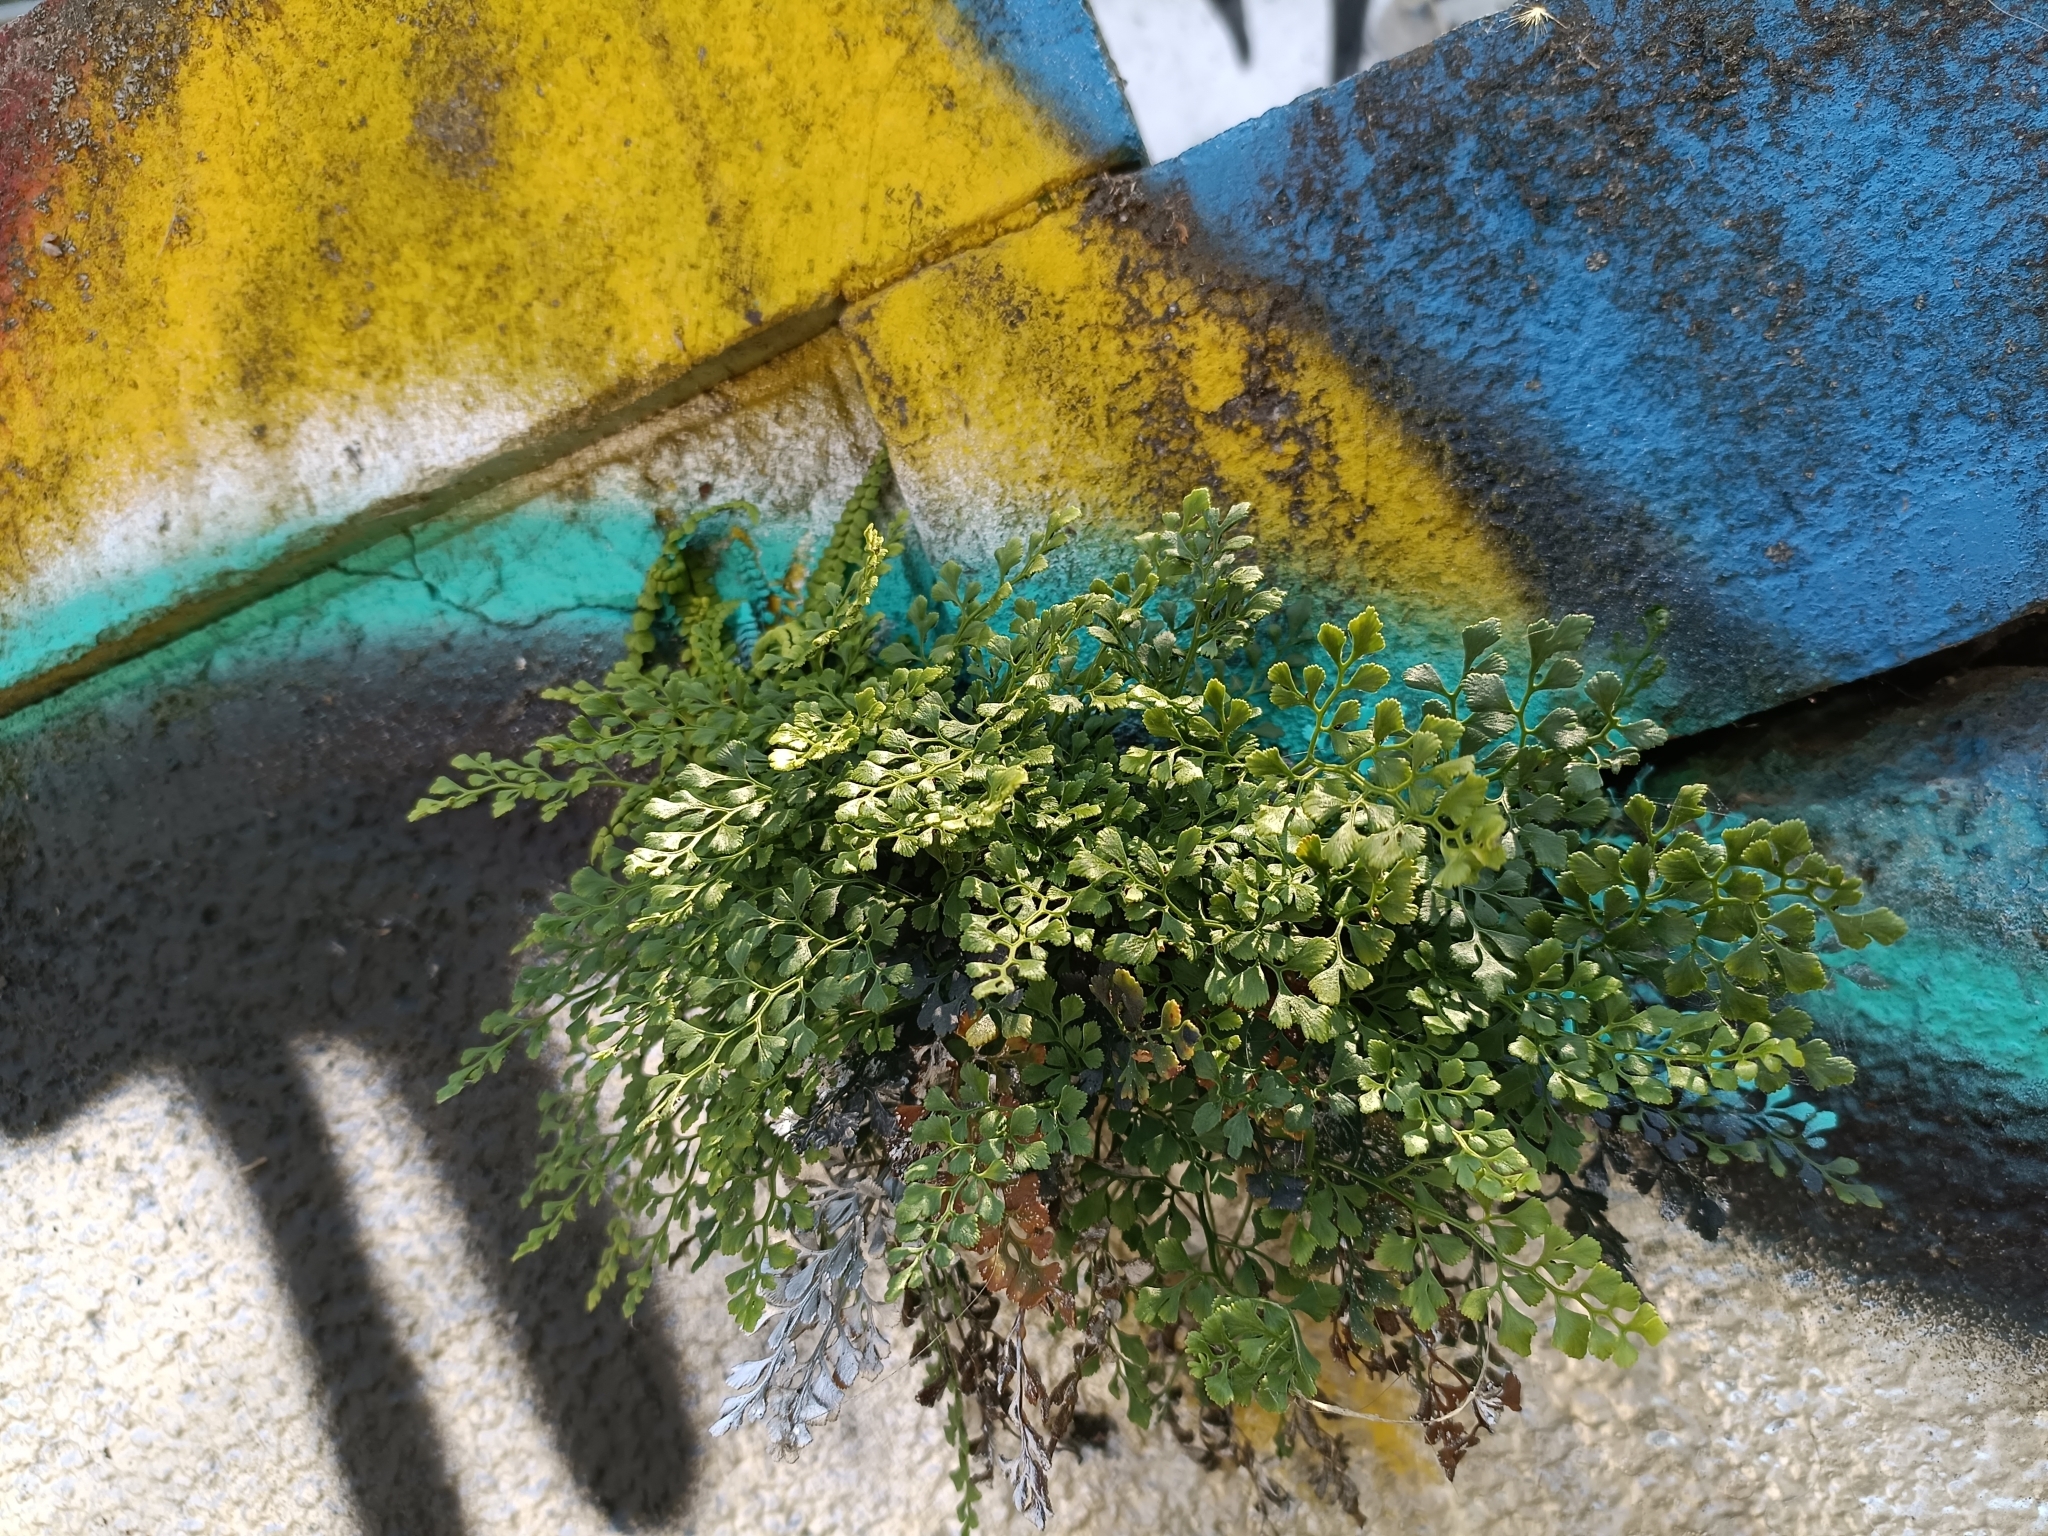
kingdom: Plantae
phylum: Tracheophyta
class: Polypodiopsida
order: Polypodiales
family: Aspleniaceae
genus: Asplenium
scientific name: Asplenium ruta-muraria
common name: Wall-rue
